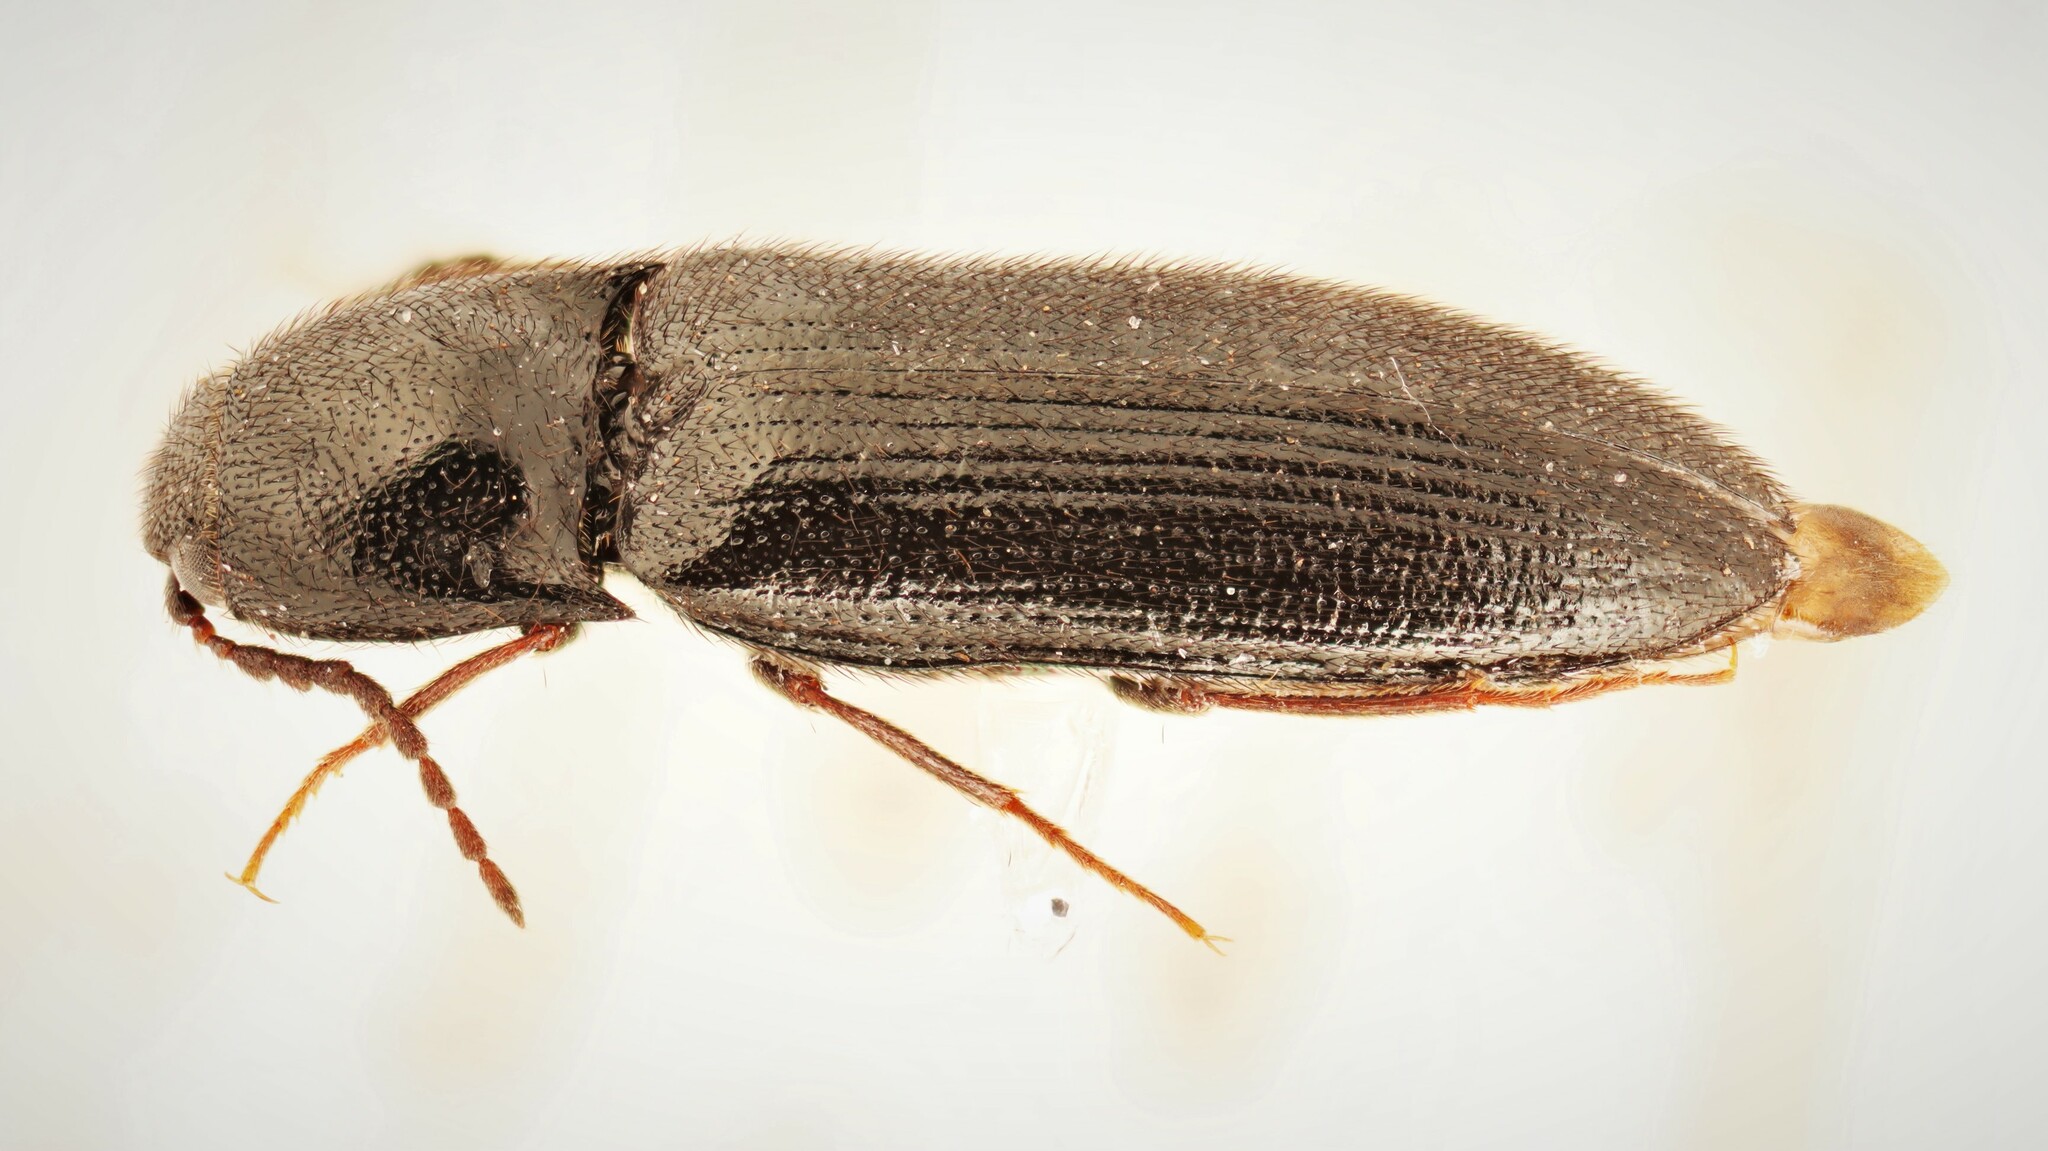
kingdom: Animalia
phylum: Arthropoda
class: Insecta
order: Coleoptera
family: Elateridae
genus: Ampedus
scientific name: Ampedus nigrinus
